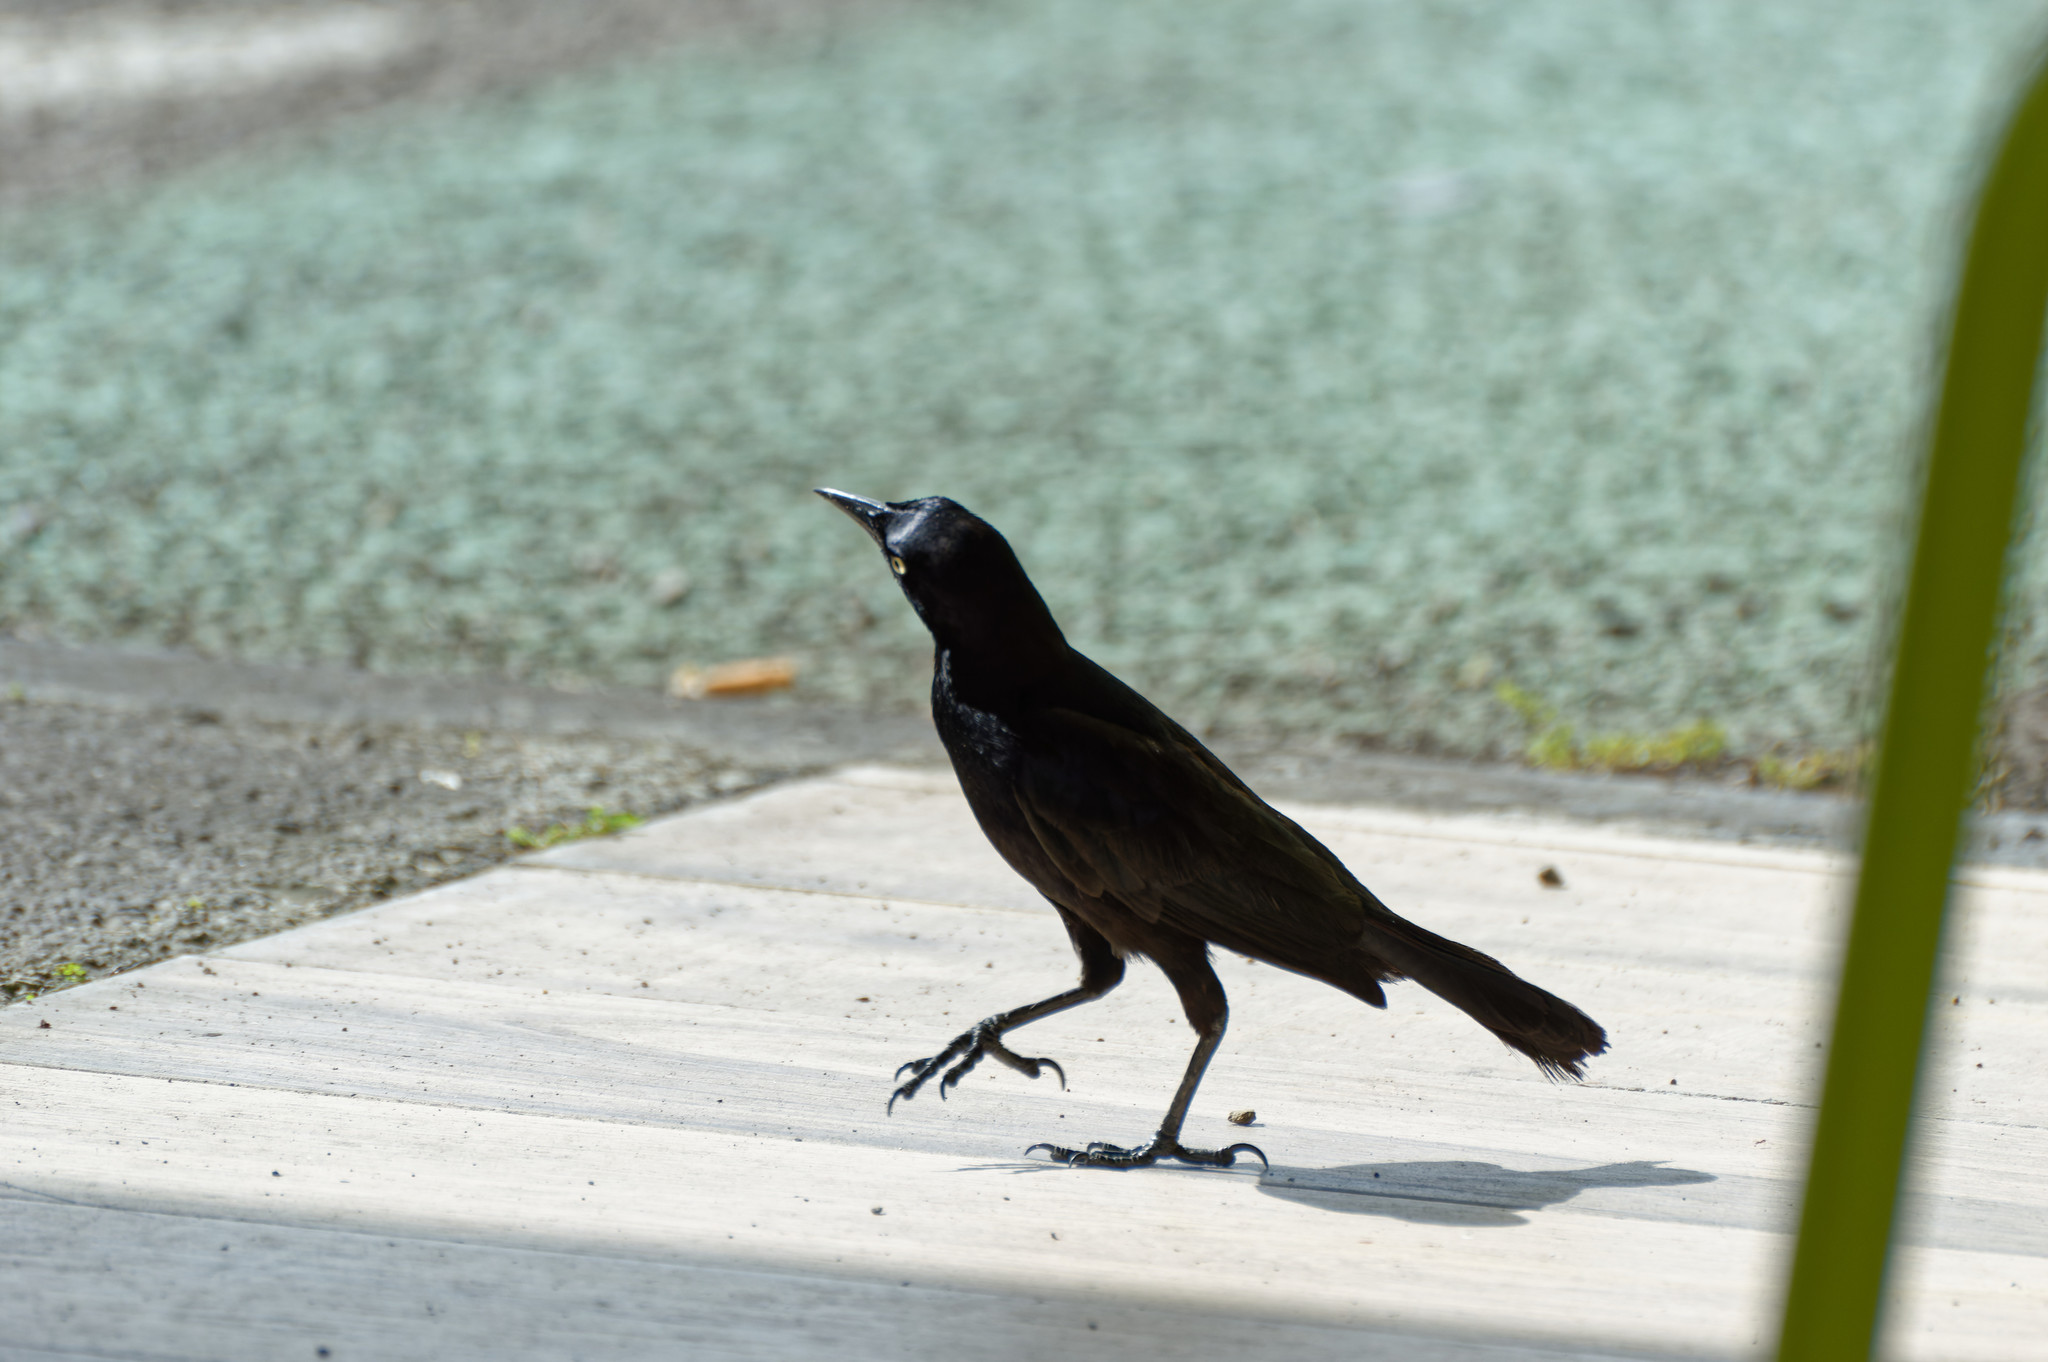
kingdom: Animalia
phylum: Chordata
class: Aves
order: Passeriformes
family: Icteridae
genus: Quiscalus
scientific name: Quiscalus lugubris
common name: Carib grackle
